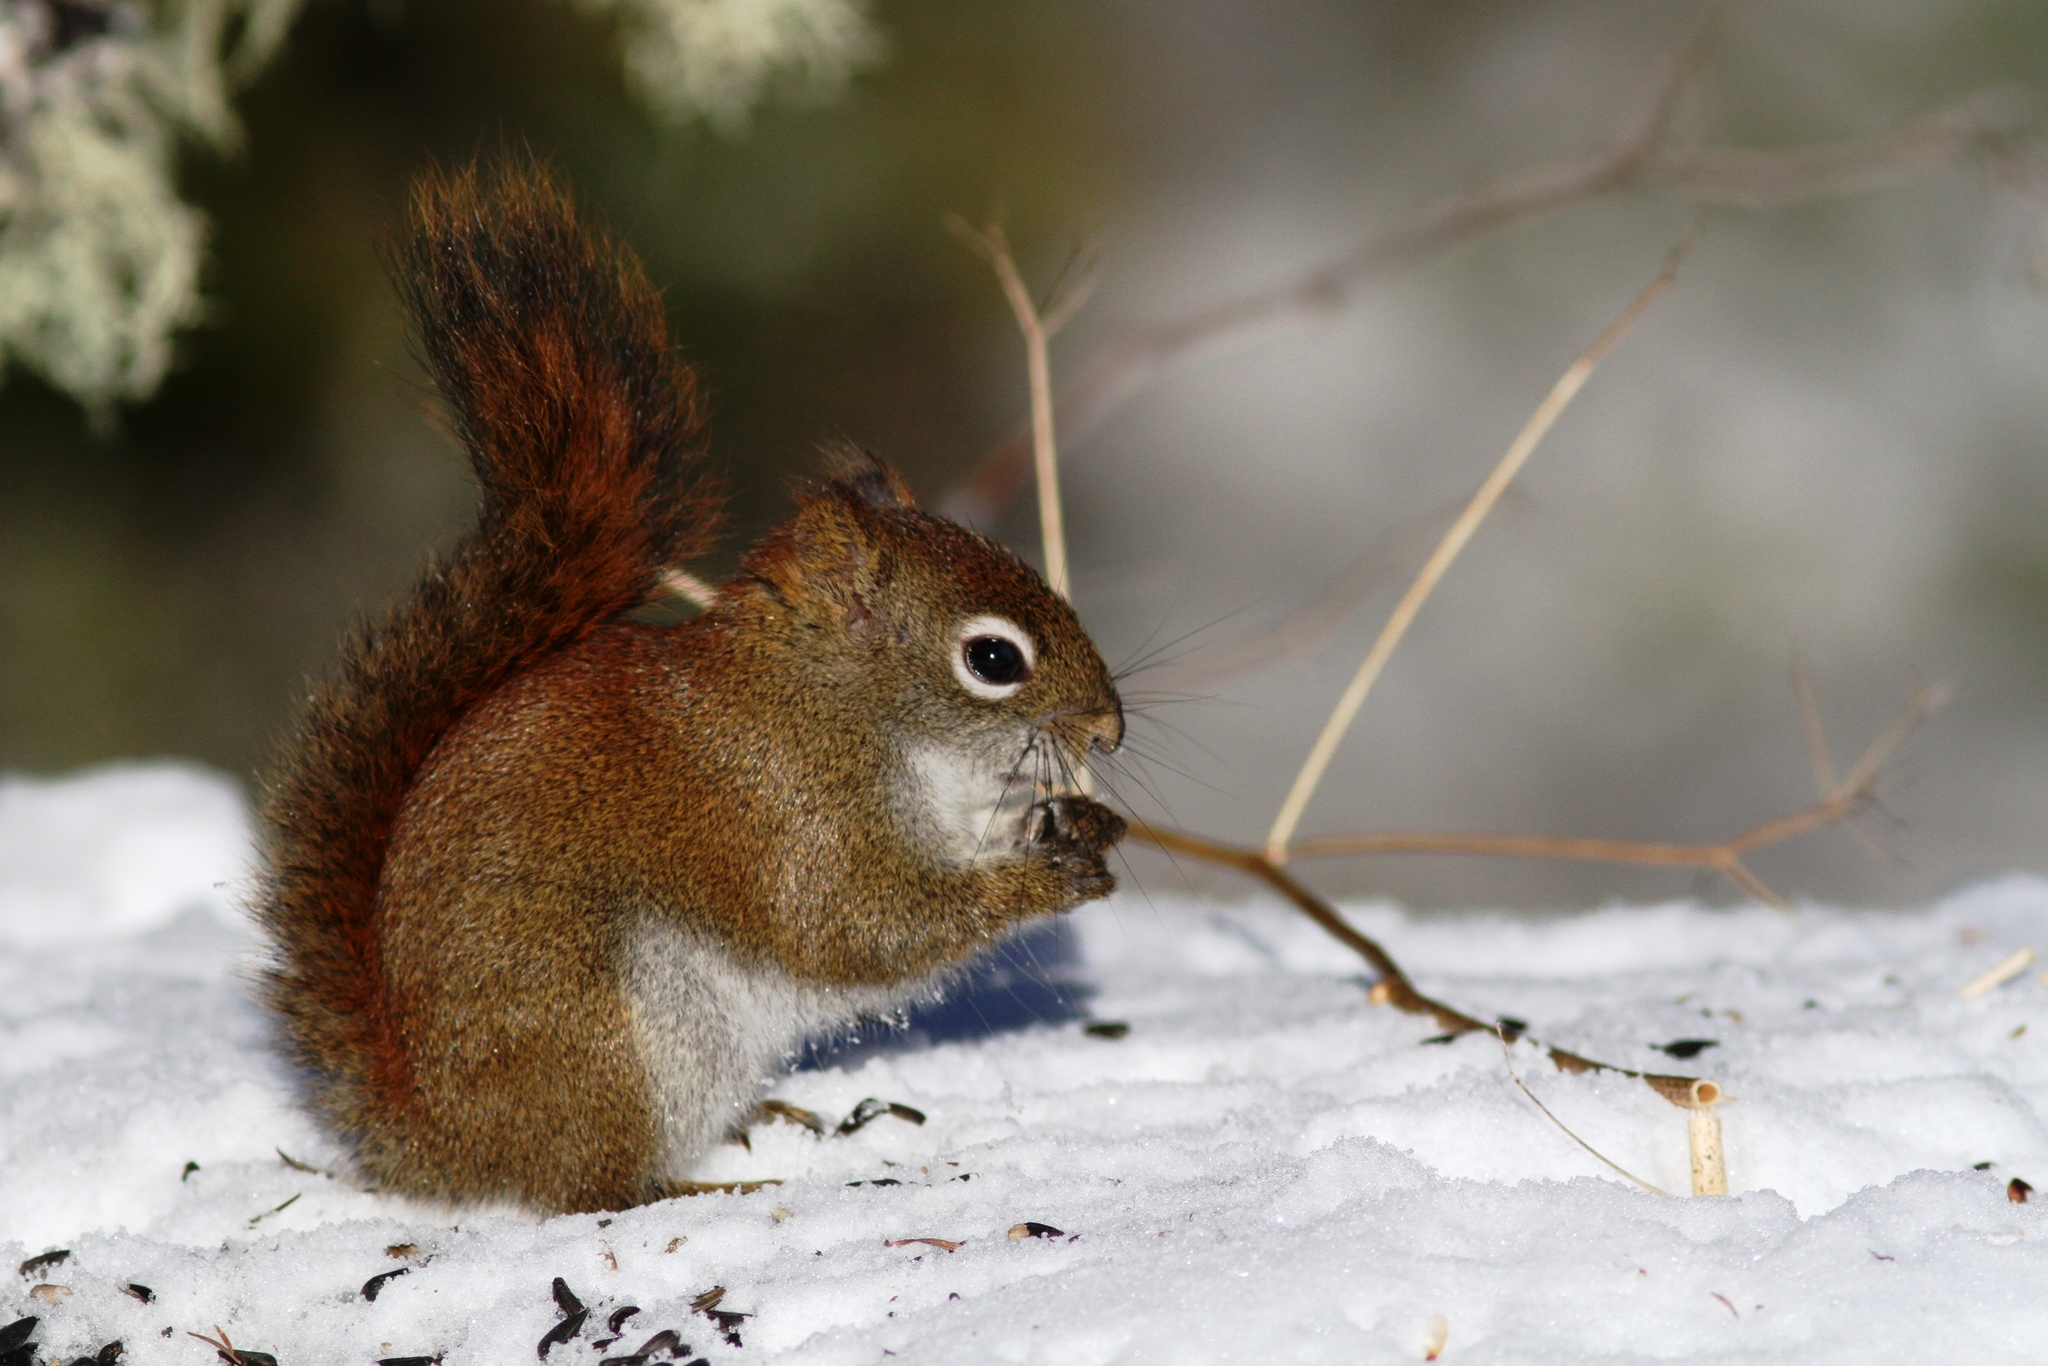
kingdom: Animalia
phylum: Chordata
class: Mammalia
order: Rodentia
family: Sciuridae
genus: Tamiasciurus
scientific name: Tamiasciurus hudsonicus
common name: Red squirrel
